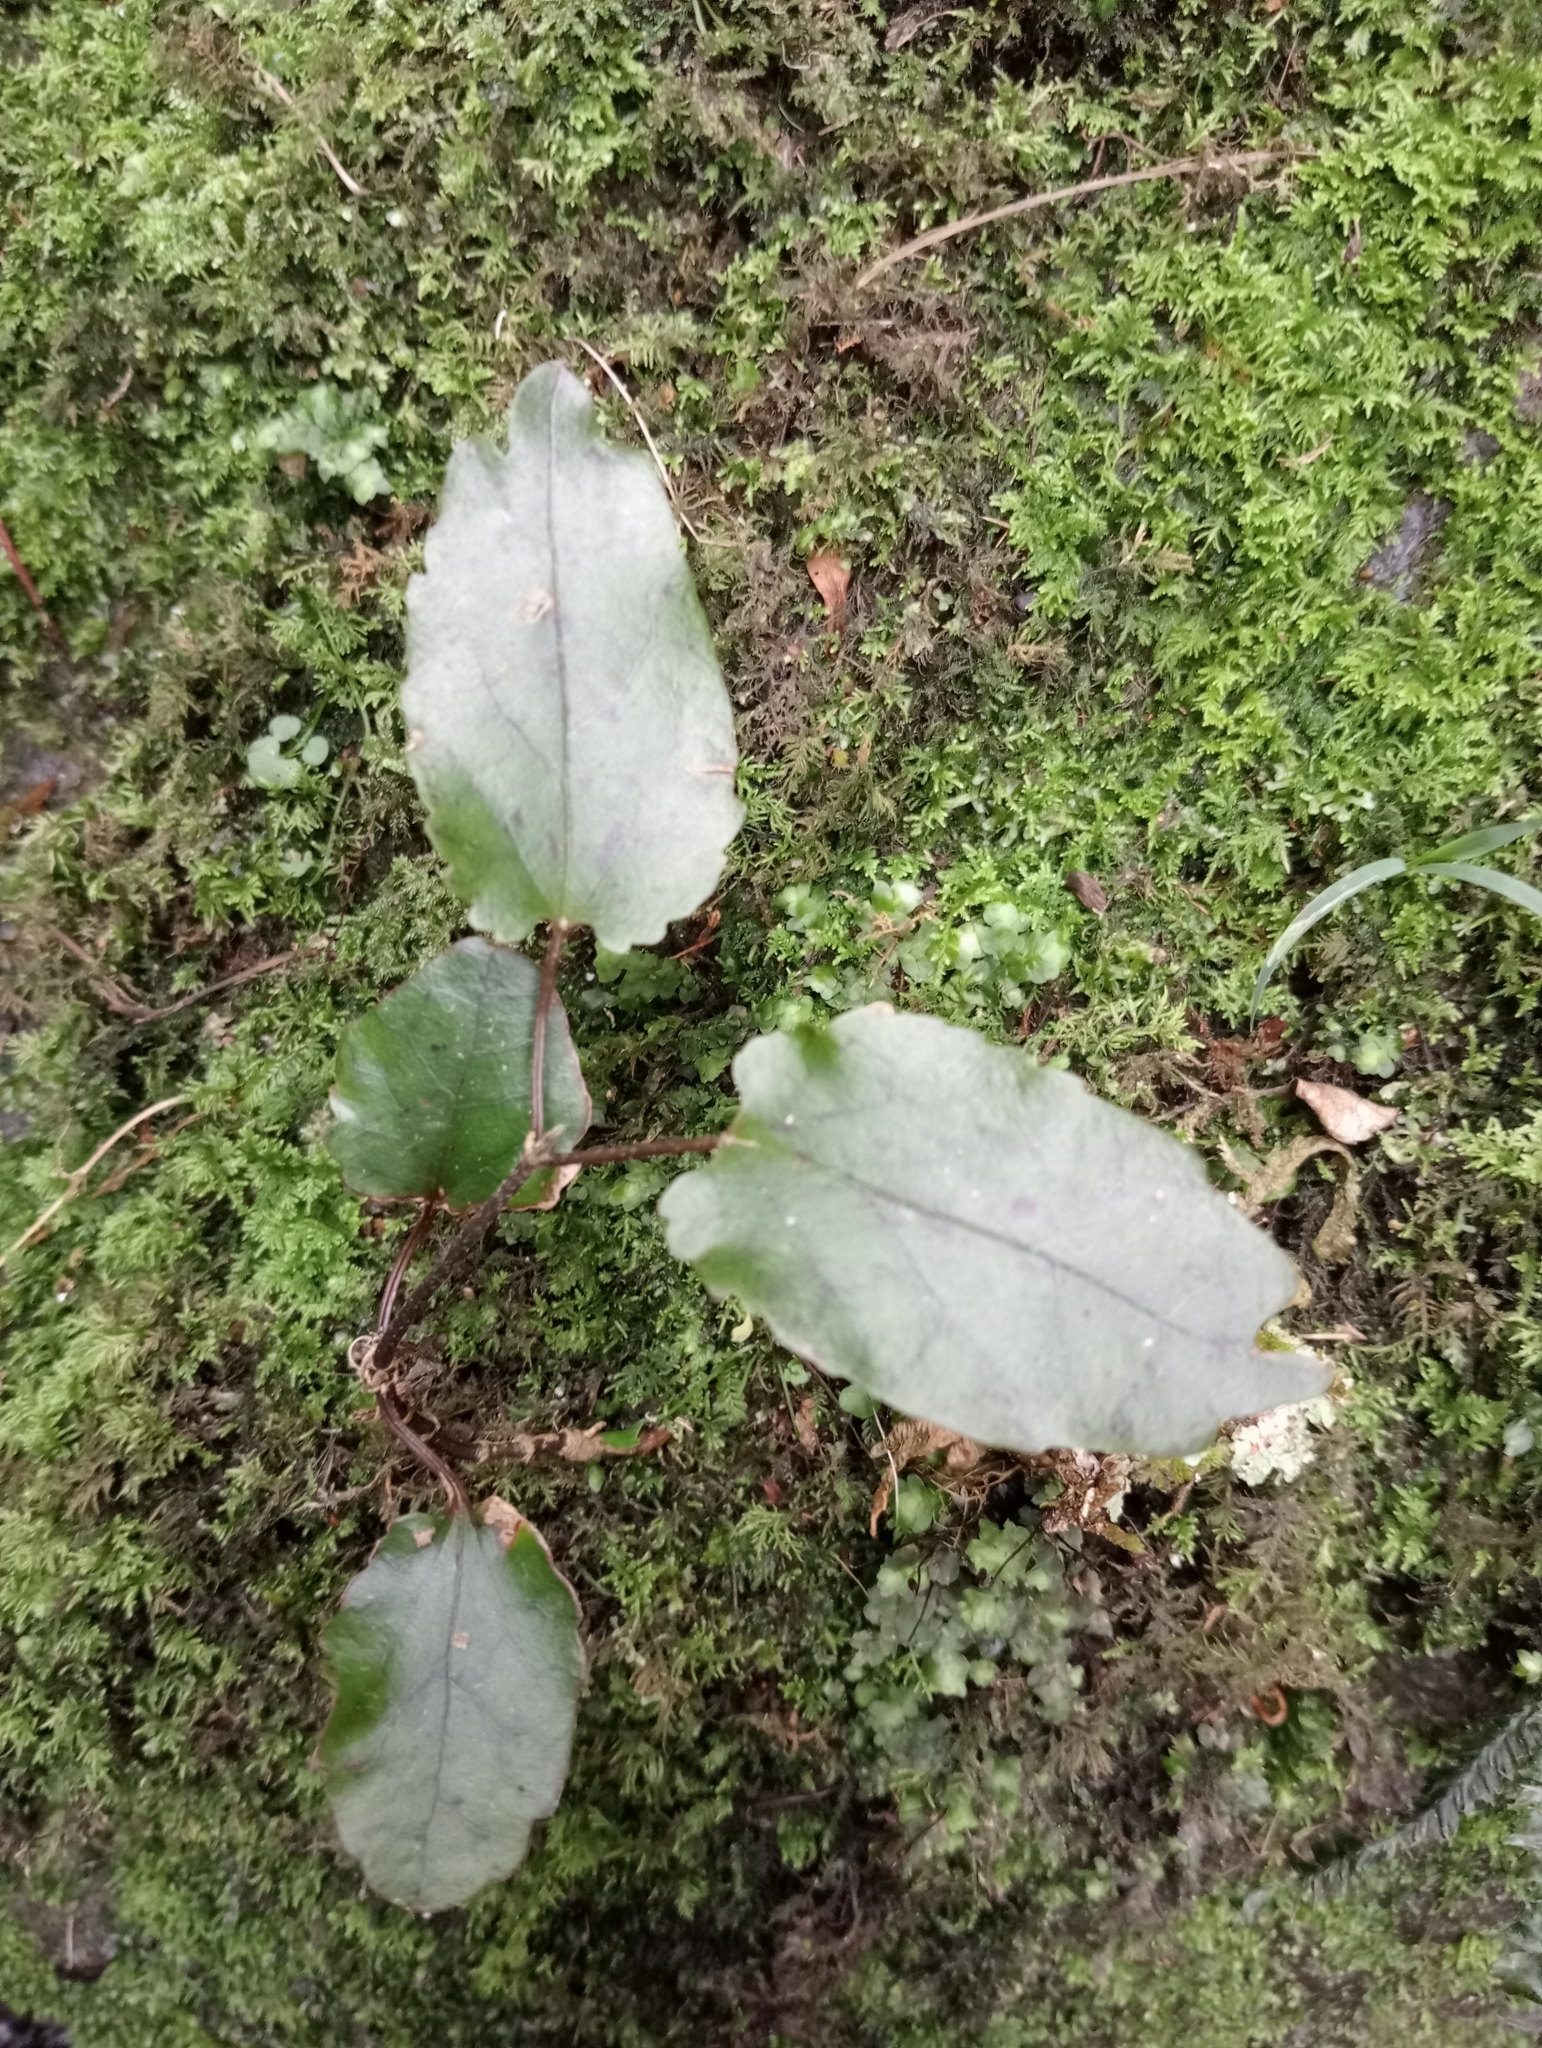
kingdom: Plantae
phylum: Tracheophyta
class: Magnoliopsida
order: Ranunculales
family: Ranunculaceae
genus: Clematis
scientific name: Clematis paniculata
